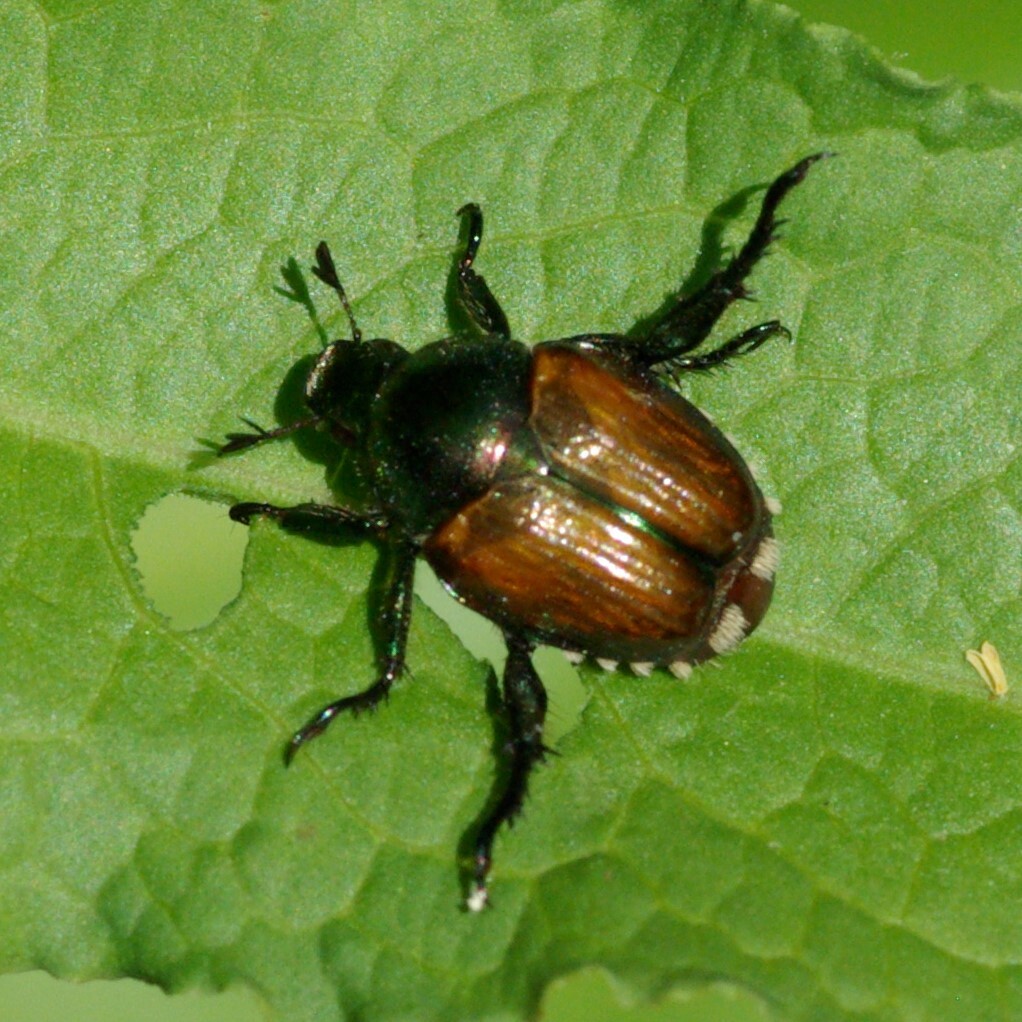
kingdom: Animalia
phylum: Arthropoda
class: Insecta
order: Coleoptera
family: Scarabaeidae
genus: Popillia
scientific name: Popillia japonica
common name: Japanese beetle
